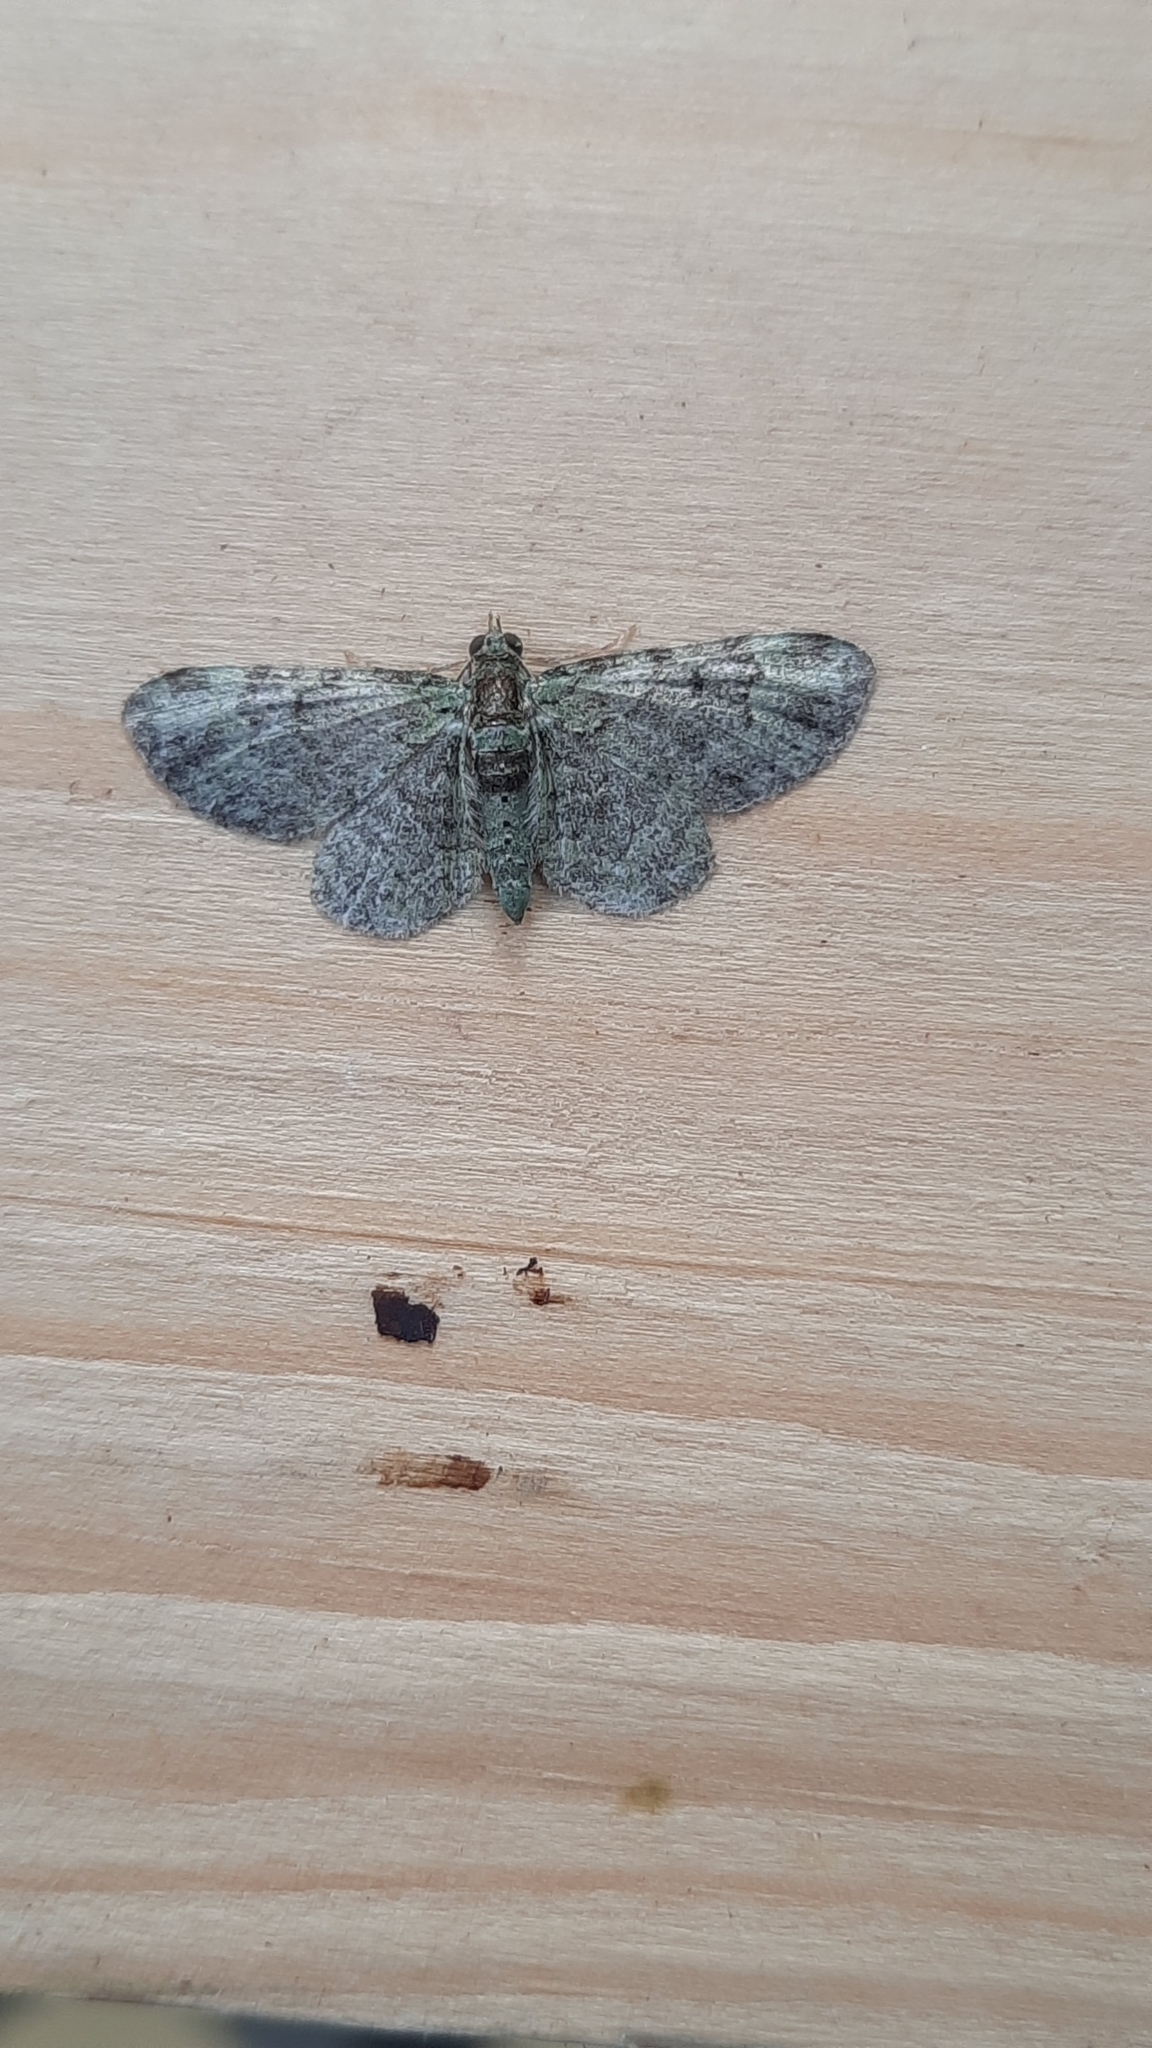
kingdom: Animalia
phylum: Arthropoda
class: Insecta
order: Lepidoptera
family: Geometridae
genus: Pasiphila
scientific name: Pasiphila rectangulata
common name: Green pug
